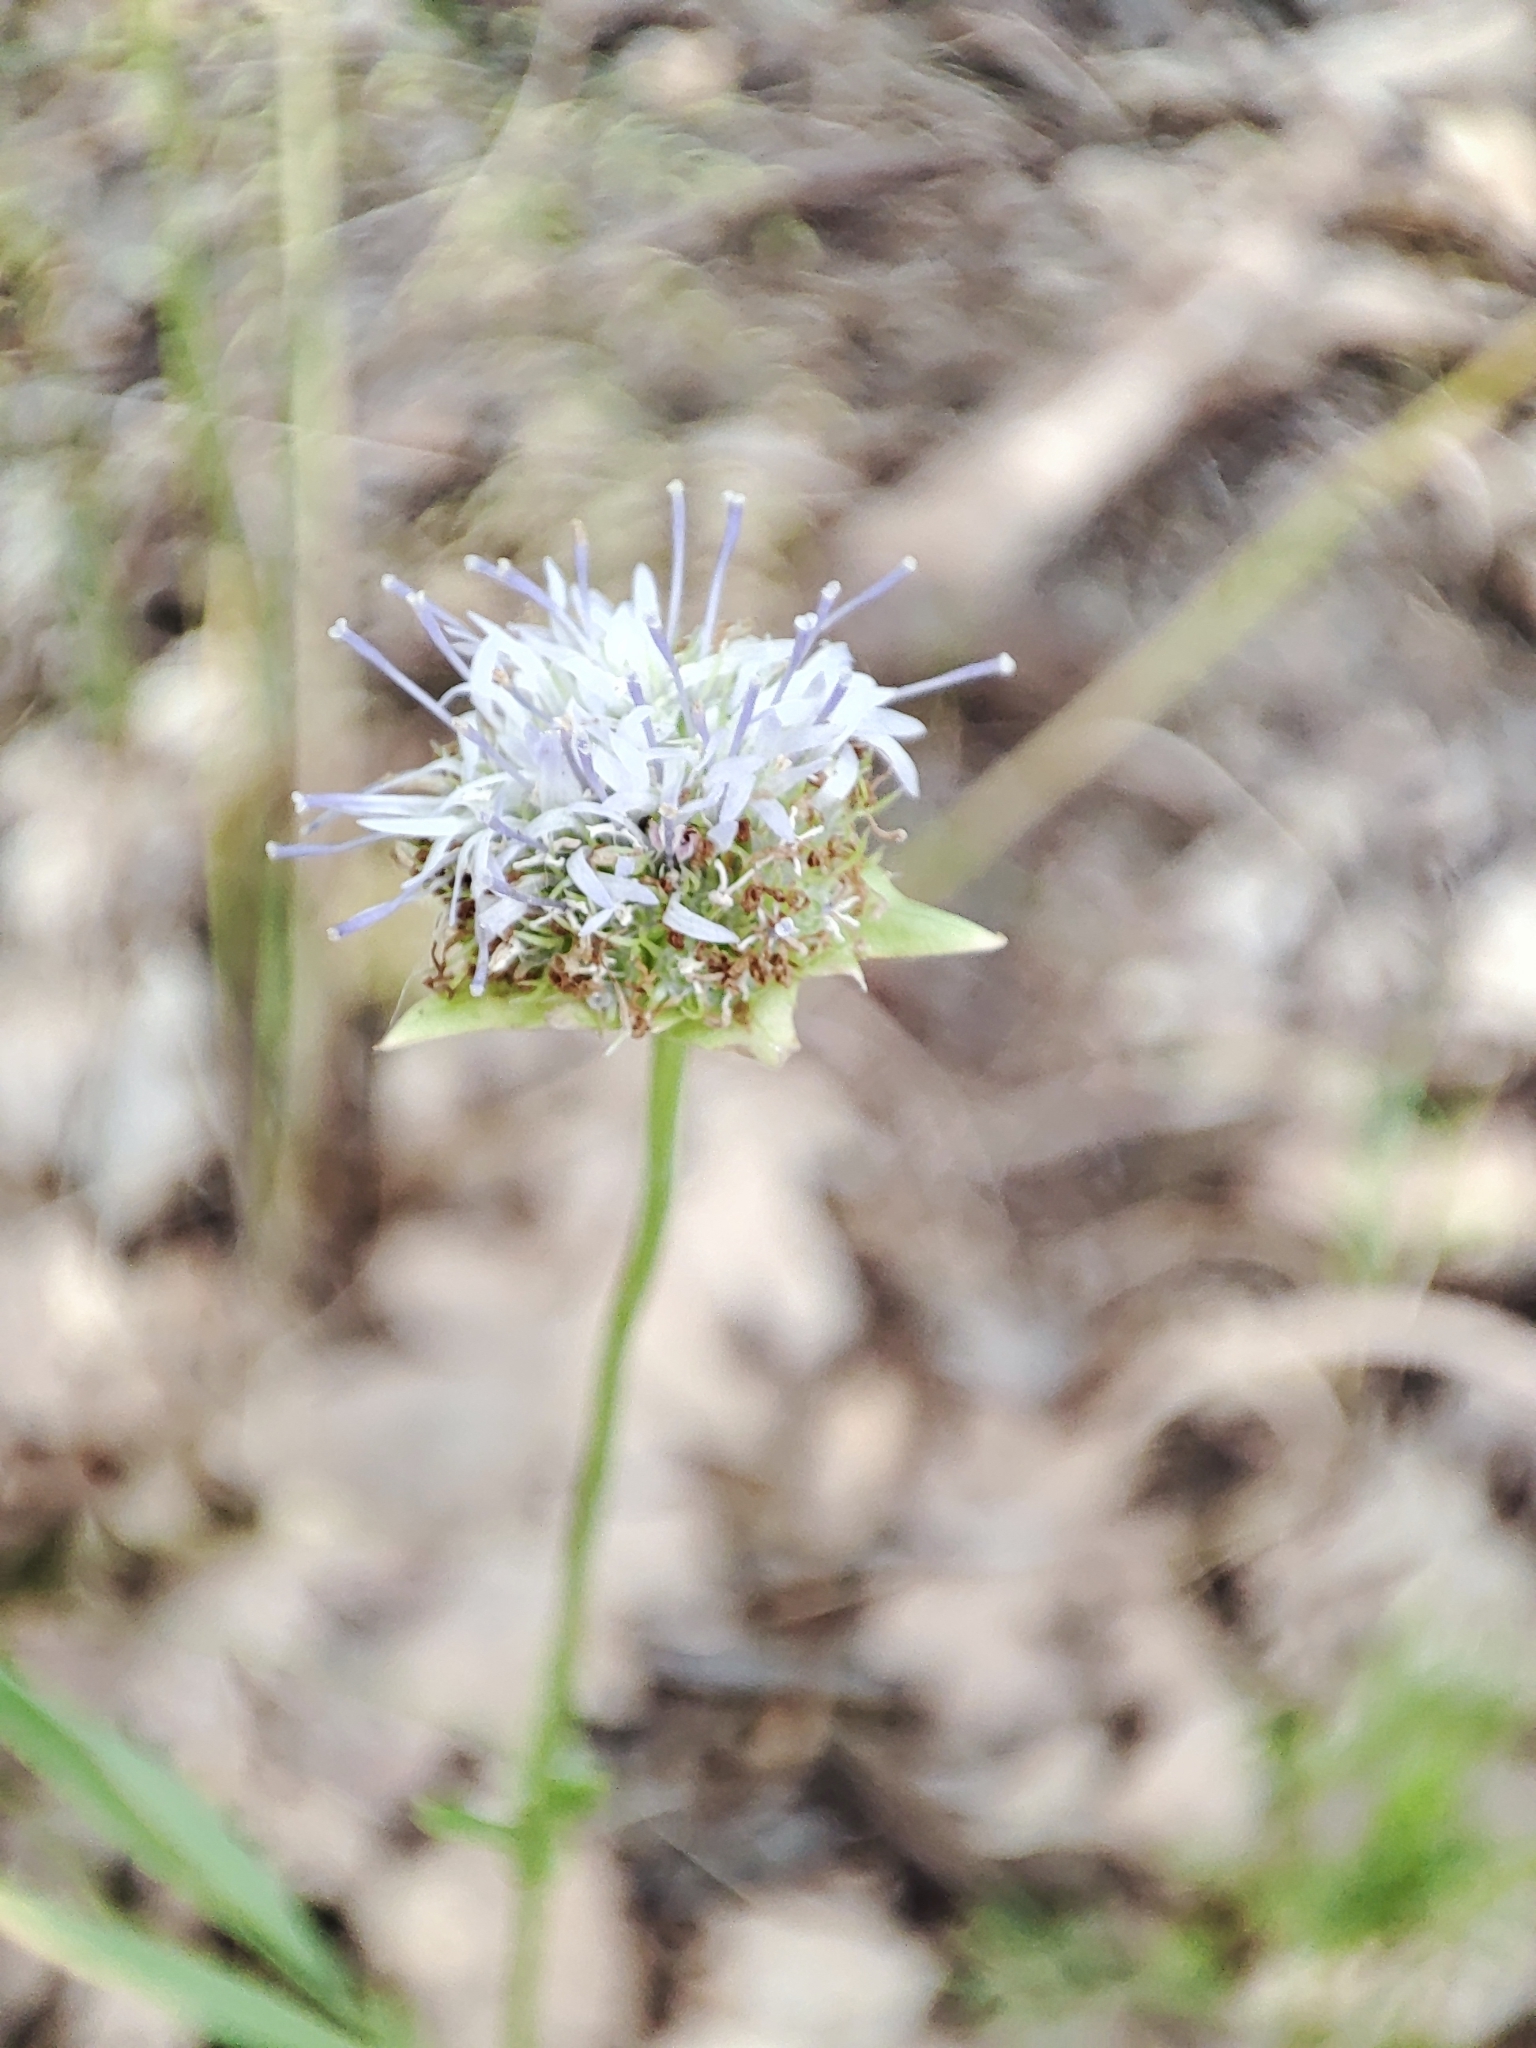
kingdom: Plantae
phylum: Tracheophyta
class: Magnoliopsida
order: Asterales
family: Campanulaceae
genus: Jasione
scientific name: Jasione montana
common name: Sheep's-bit
